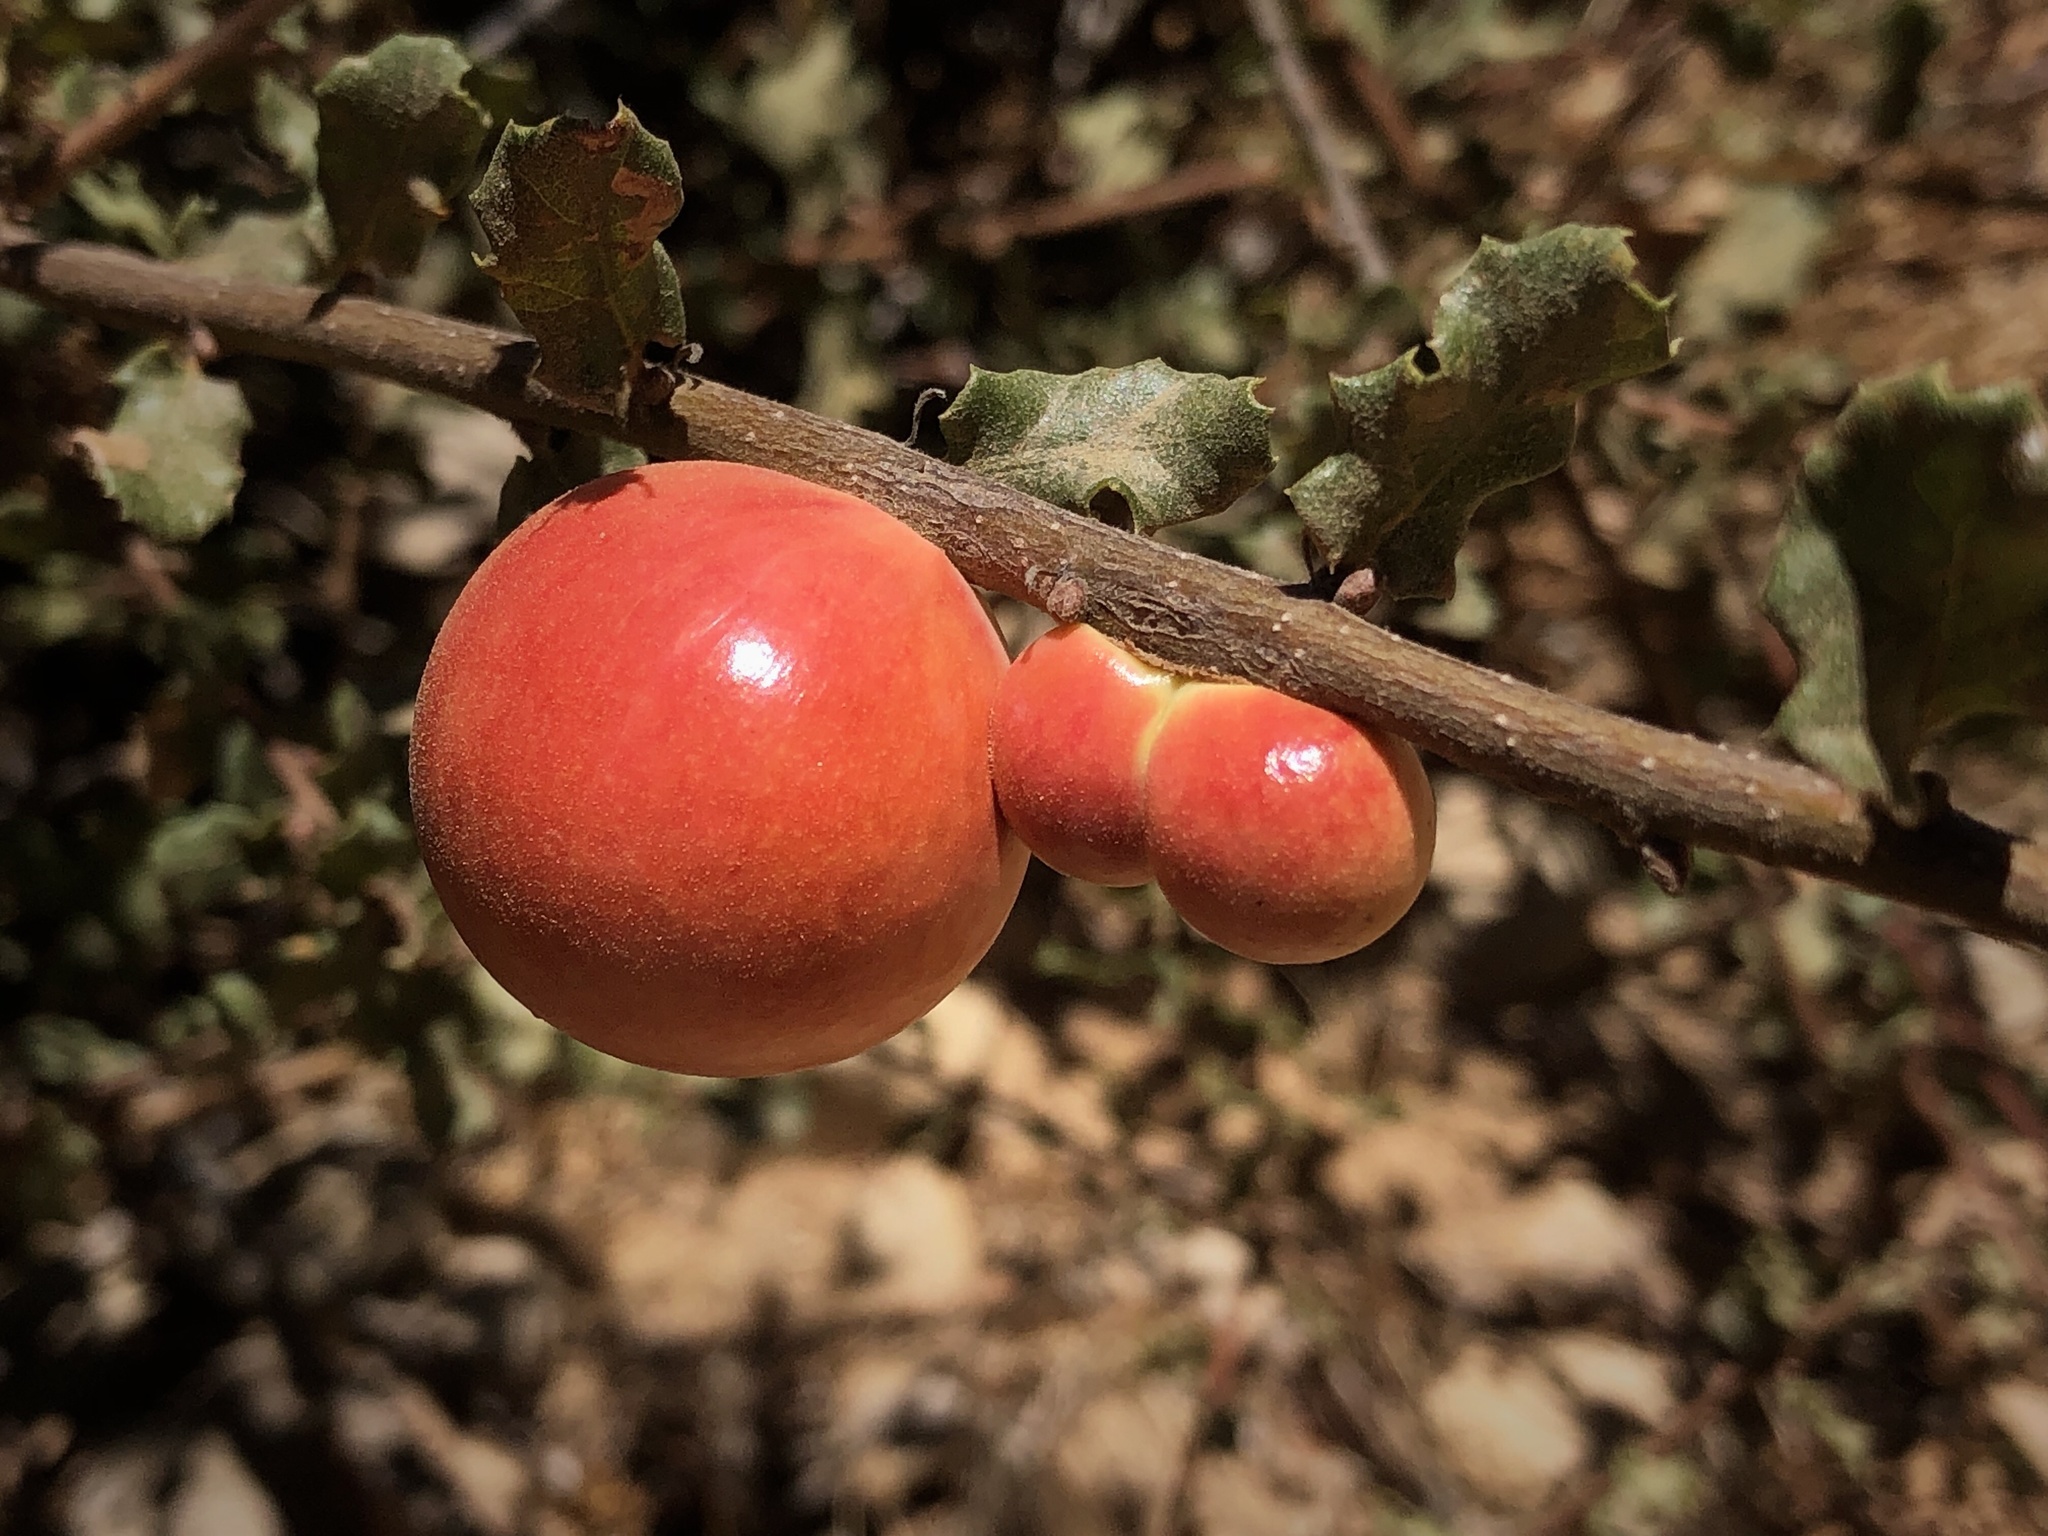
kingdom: Animalia
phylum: Arthropoda
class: Insecta
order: Hymenoptera
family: Cynipidae
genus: Andricus
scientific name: Andricus quercuscalifornicus
